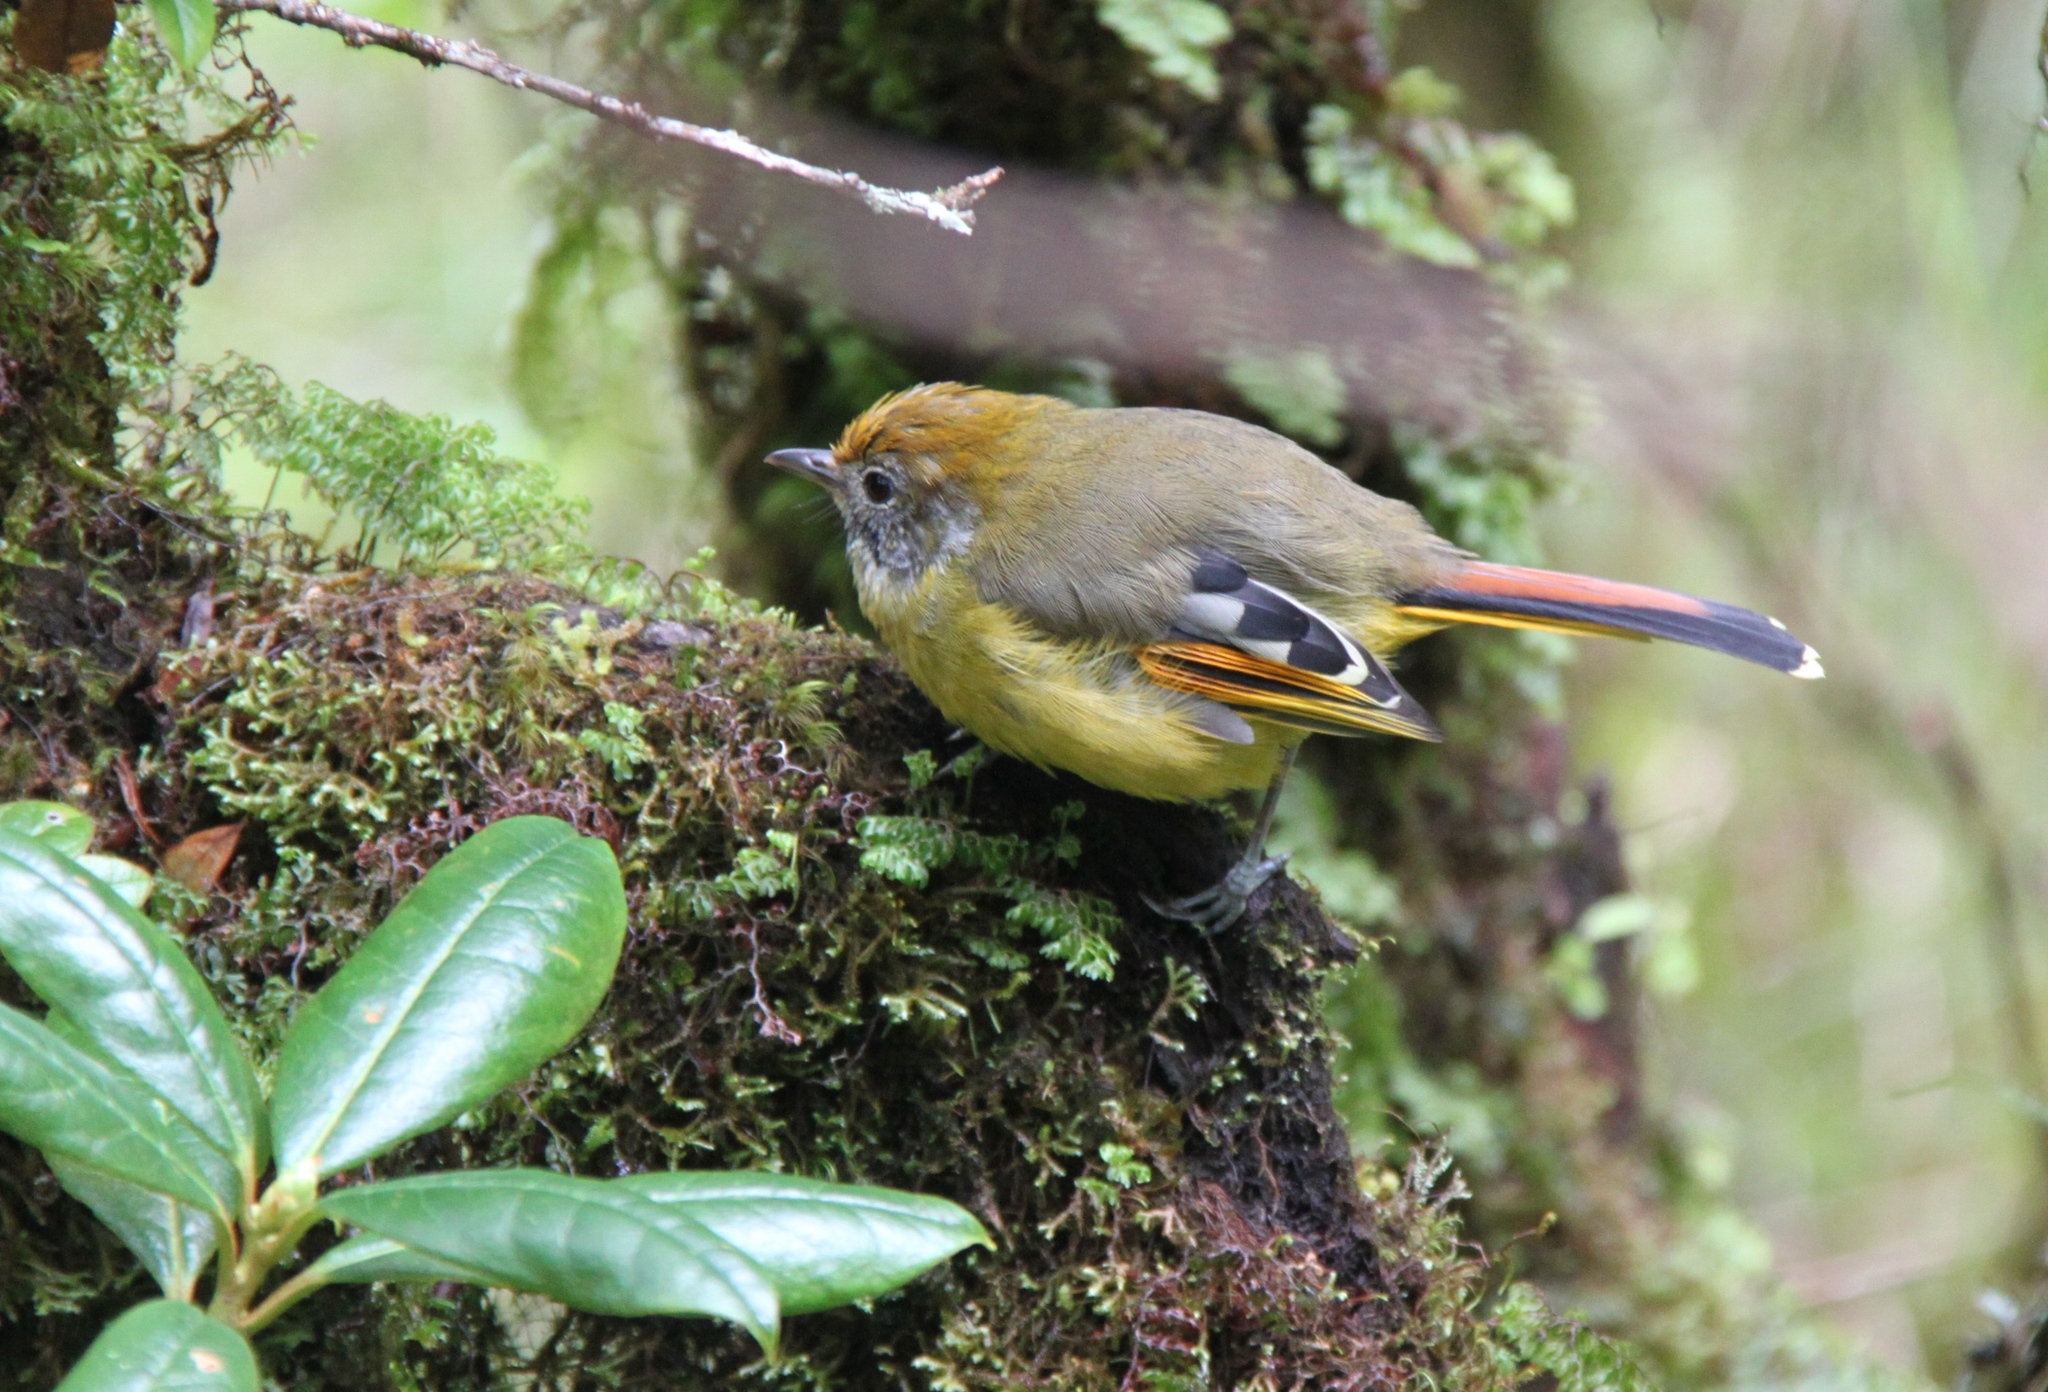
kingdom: Animalia
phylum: Chordata
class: Aves
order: Passeriformes
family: Leiothrichidae
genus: Minla
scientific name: Minla strigula
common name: Chestnut-tailed minla
